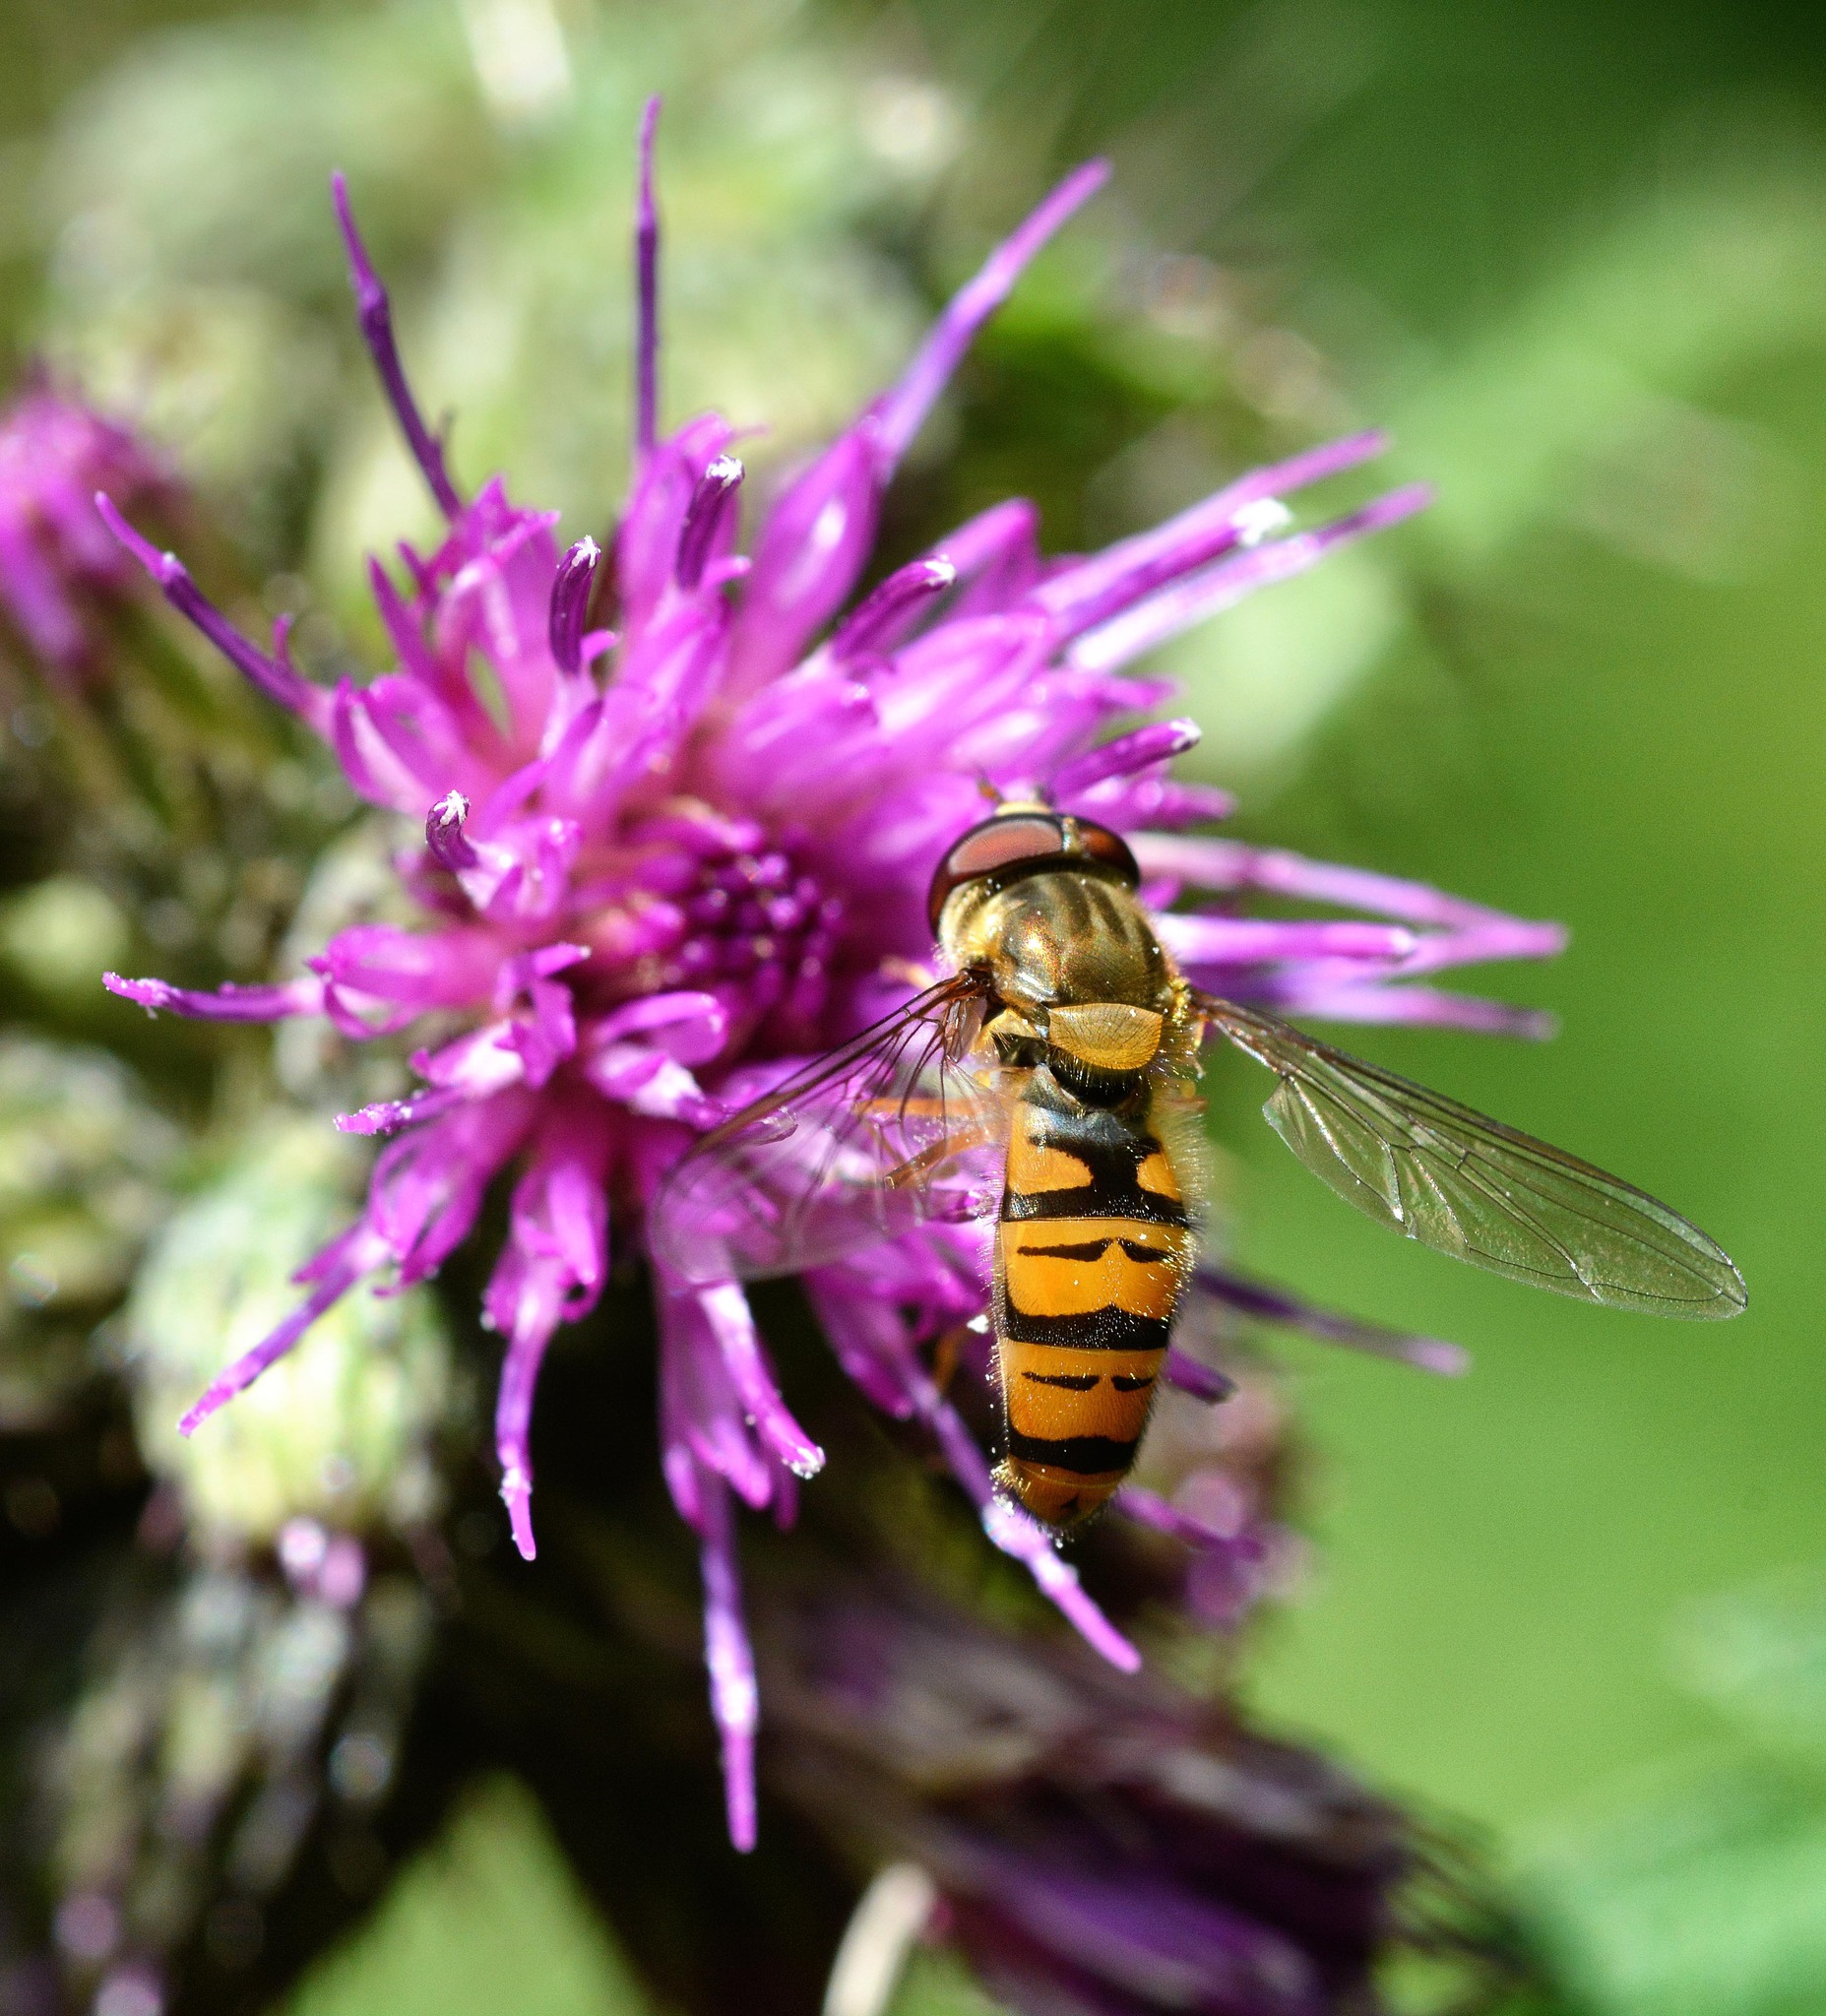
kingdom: Animalia
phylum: Arthropoda
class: Insecta
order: Diptera
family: Syrphidae
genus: Episyrphus
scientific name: Episyrphus balteatus
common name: Marmalade hoverfly
